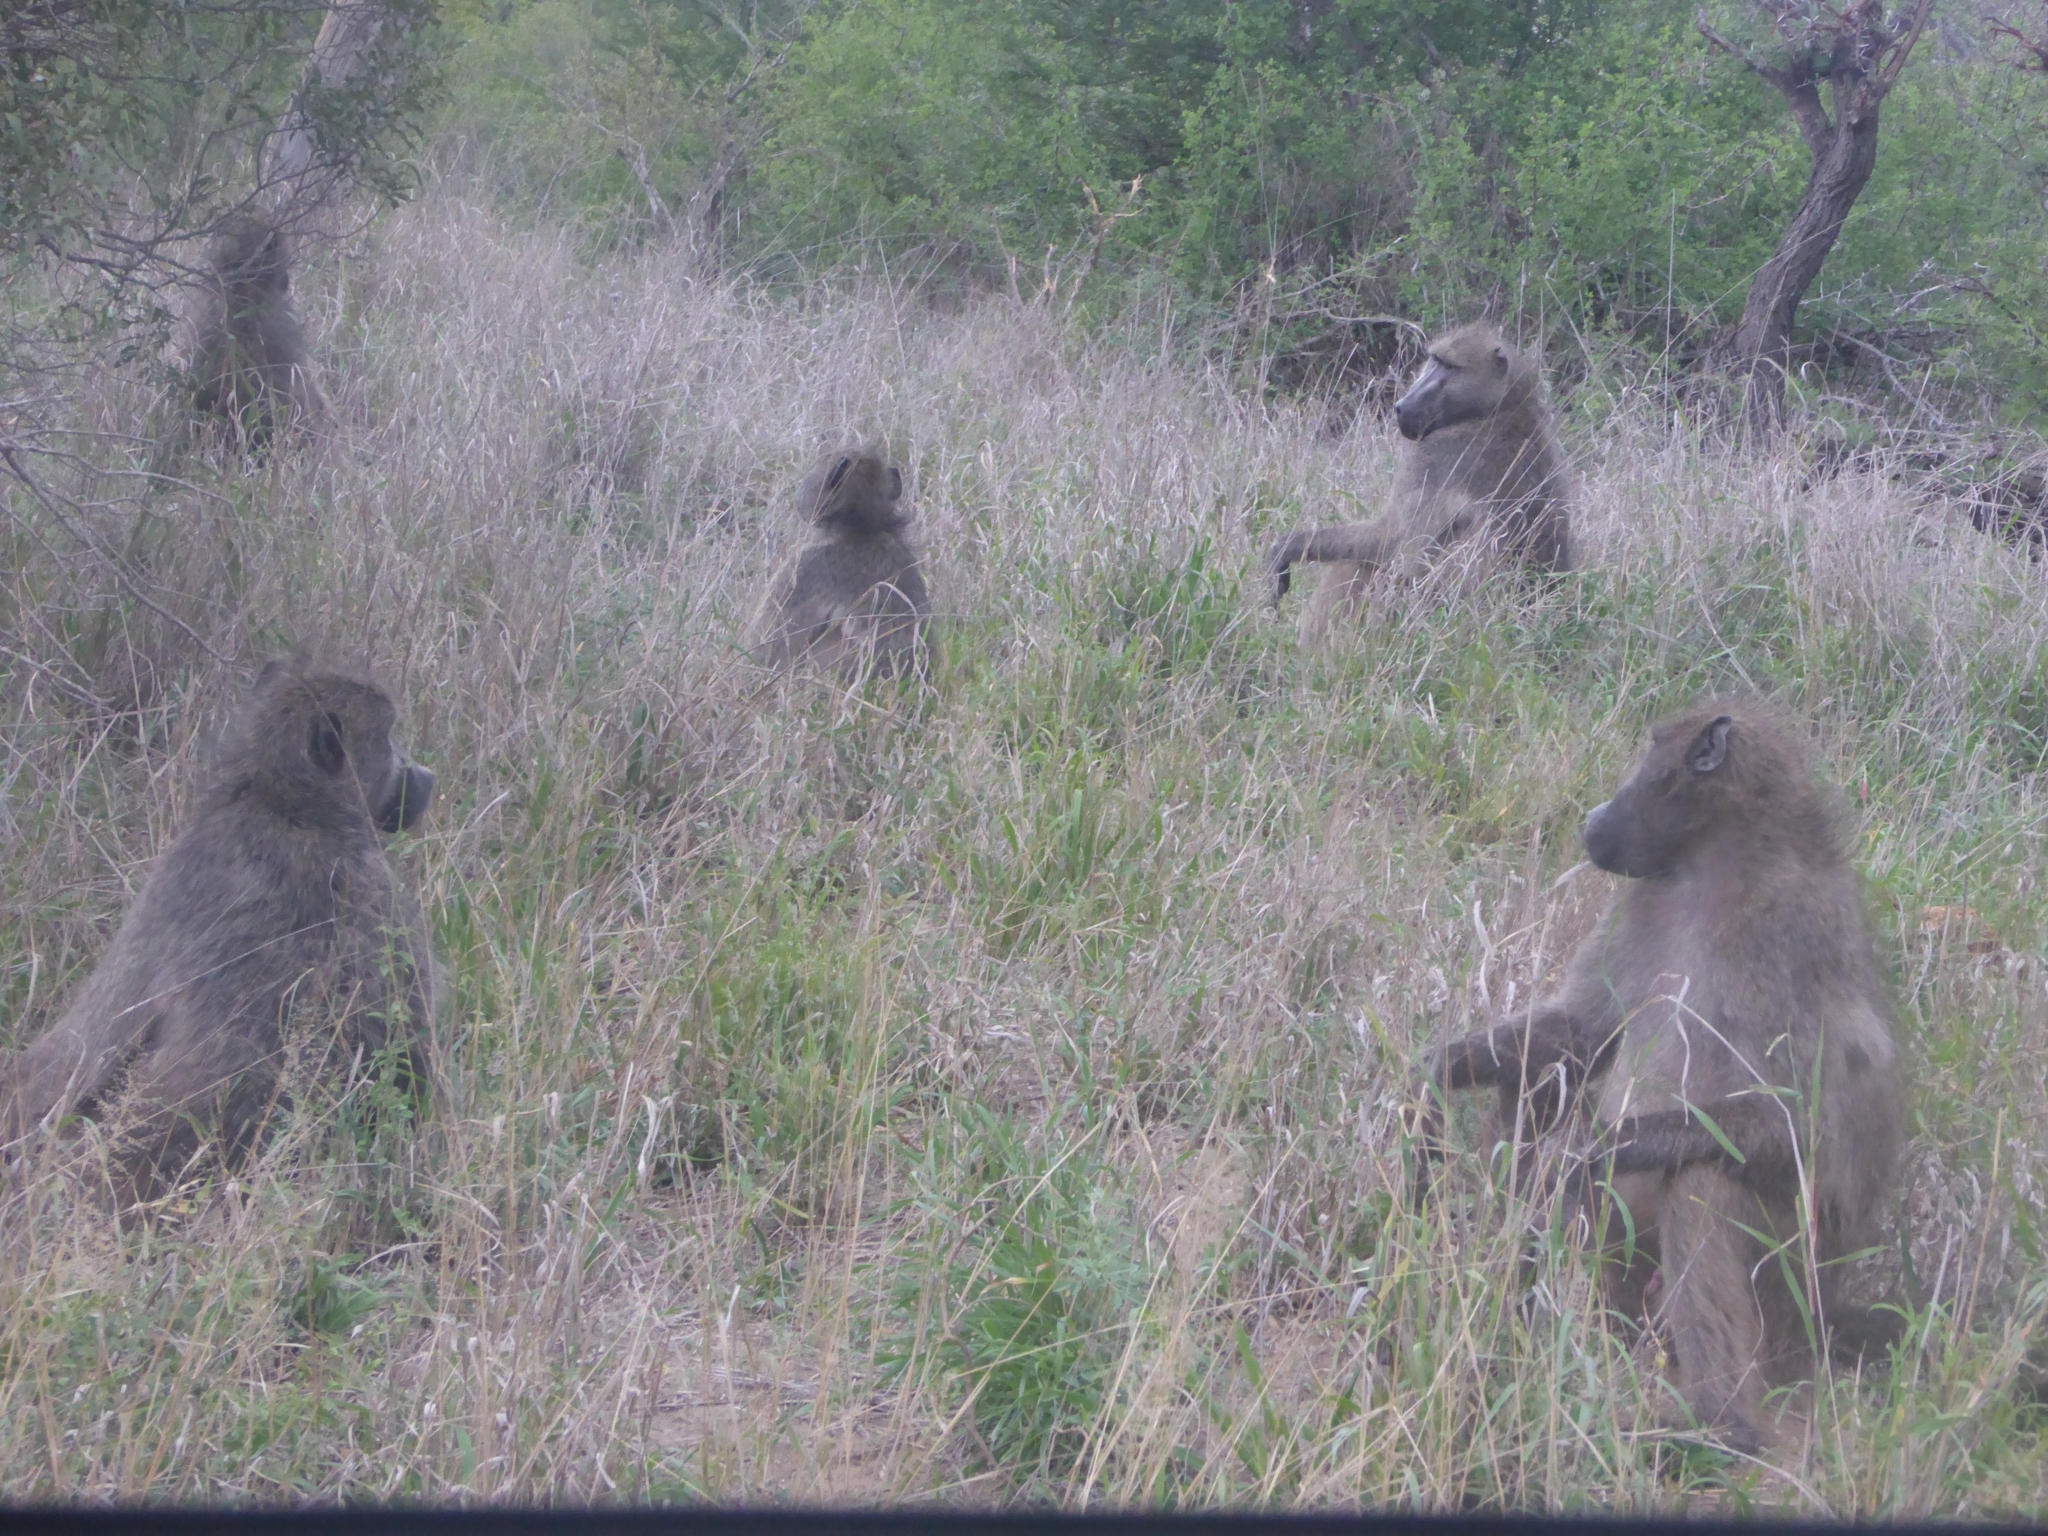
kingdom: Animalia
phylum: Chordata
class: Mammalia
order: Primates
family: Cercopithecidae
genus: Papio
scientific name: Papio ursinus
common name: Chacma baboon
